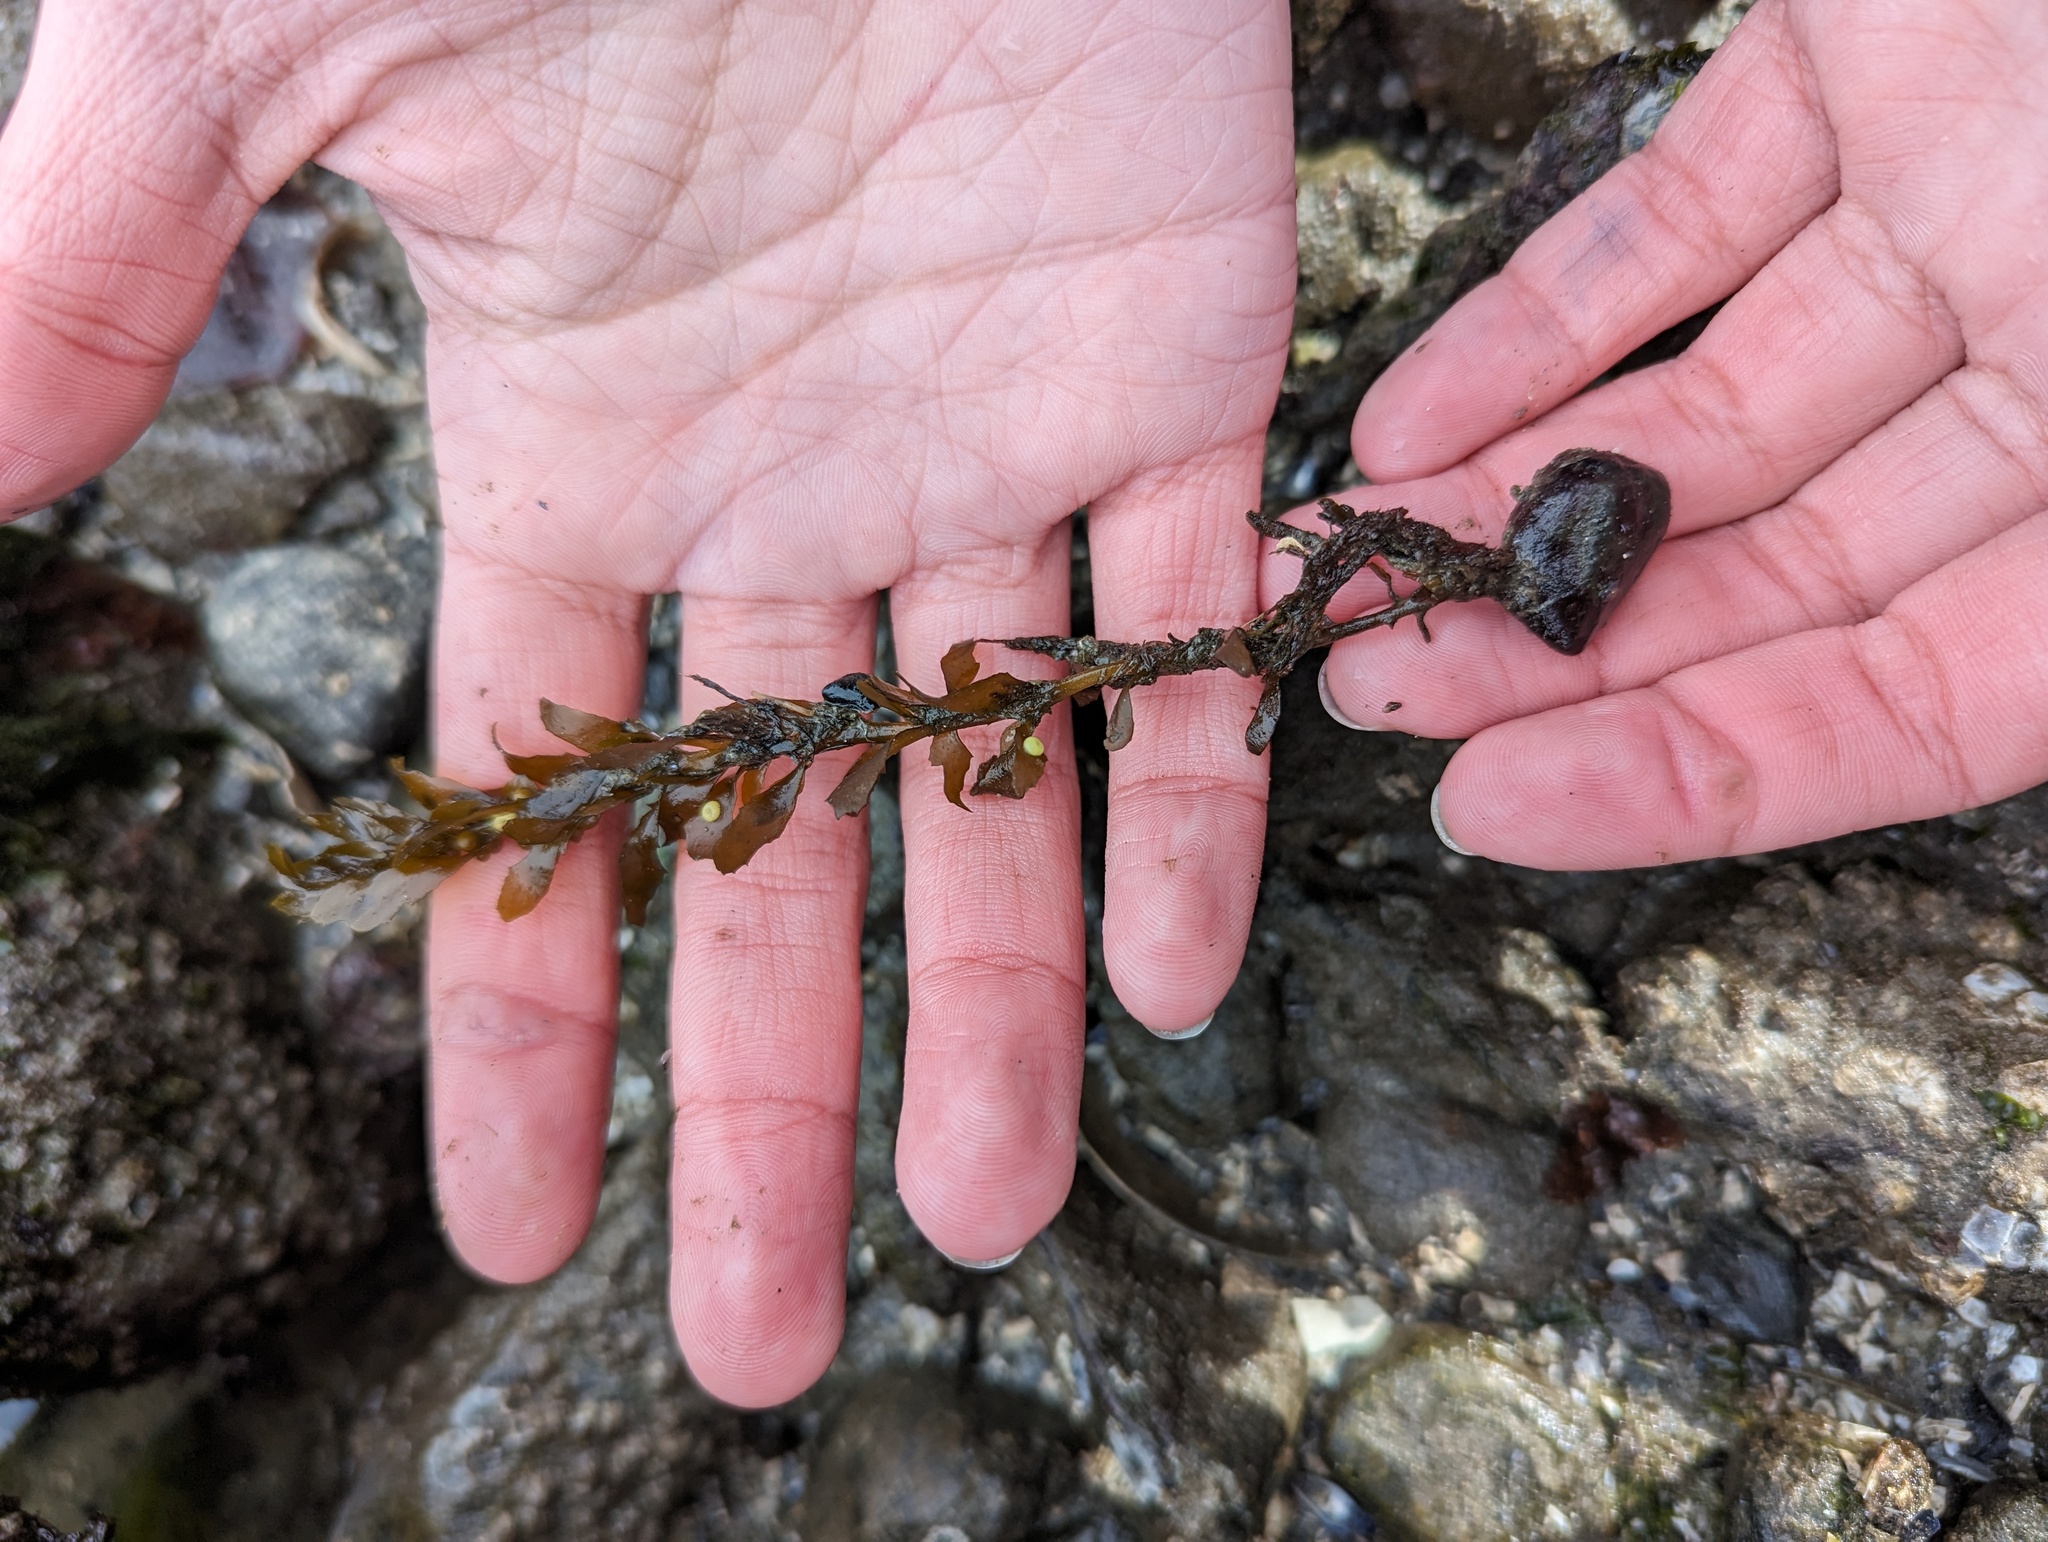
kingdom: Chromista
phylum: Ochrophyta
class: Phaeophyceae
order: Fucales
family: Sargassaceae
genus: Sargassum
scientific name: Sargassum muticum
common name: Japweed
